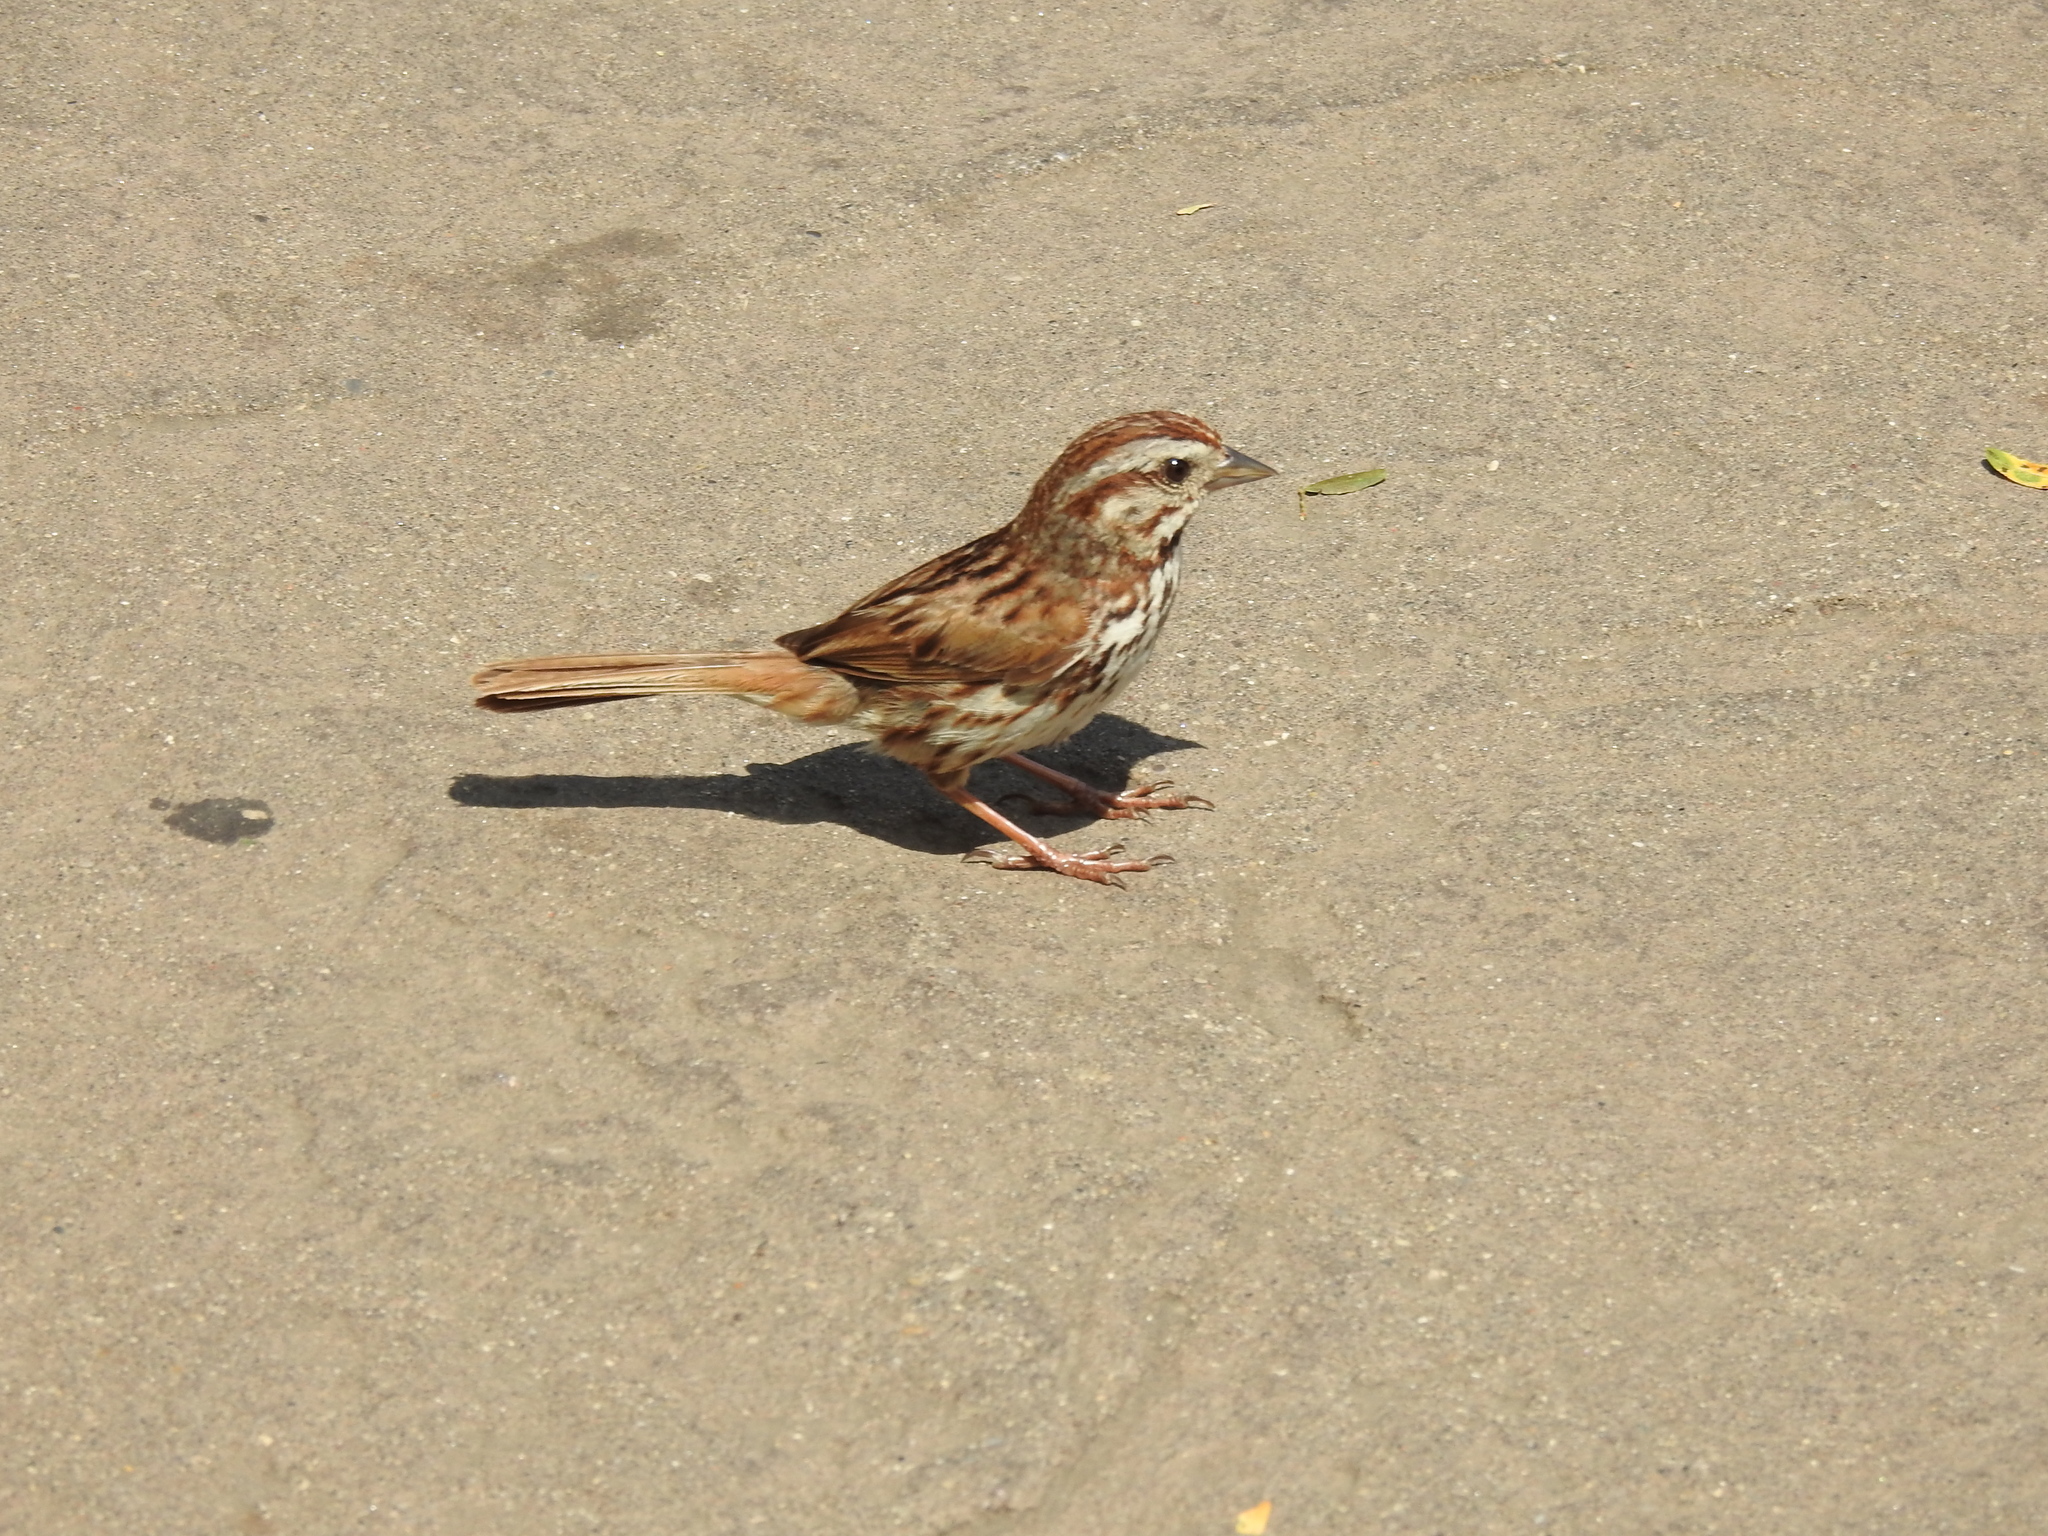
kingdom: Animalia
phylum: Chordata
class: Aves
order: Passeriformes
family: Passerellidae
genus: Melospiza
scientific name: Melospiza melodia
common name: Song sparrow
